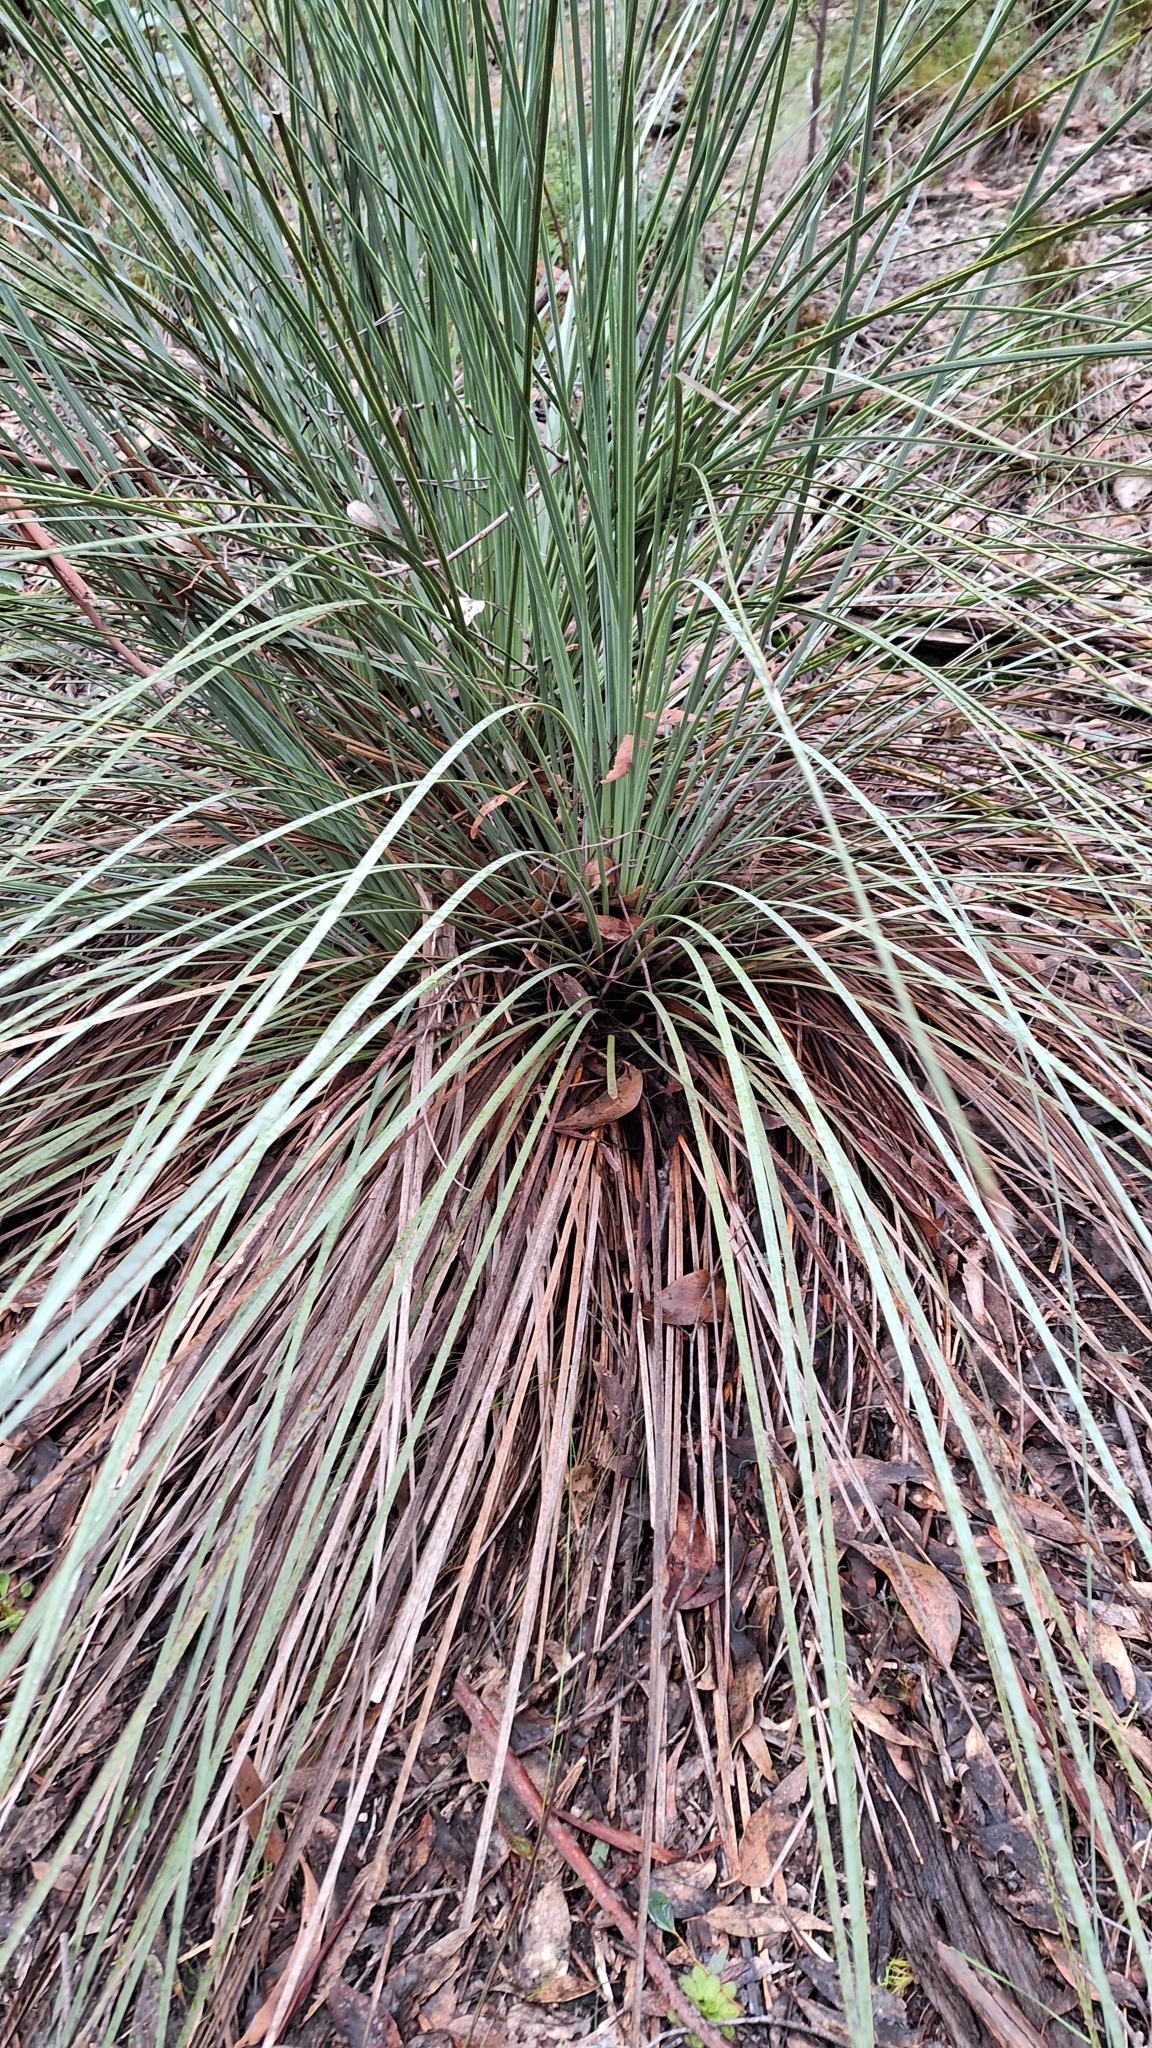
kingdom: Plantae
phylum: Tracheophyta
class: Liliopsida
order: Asparagales
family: Asphodelaceae
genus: Xanthorrhoea
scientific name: Xanthorrhoea semiplana
